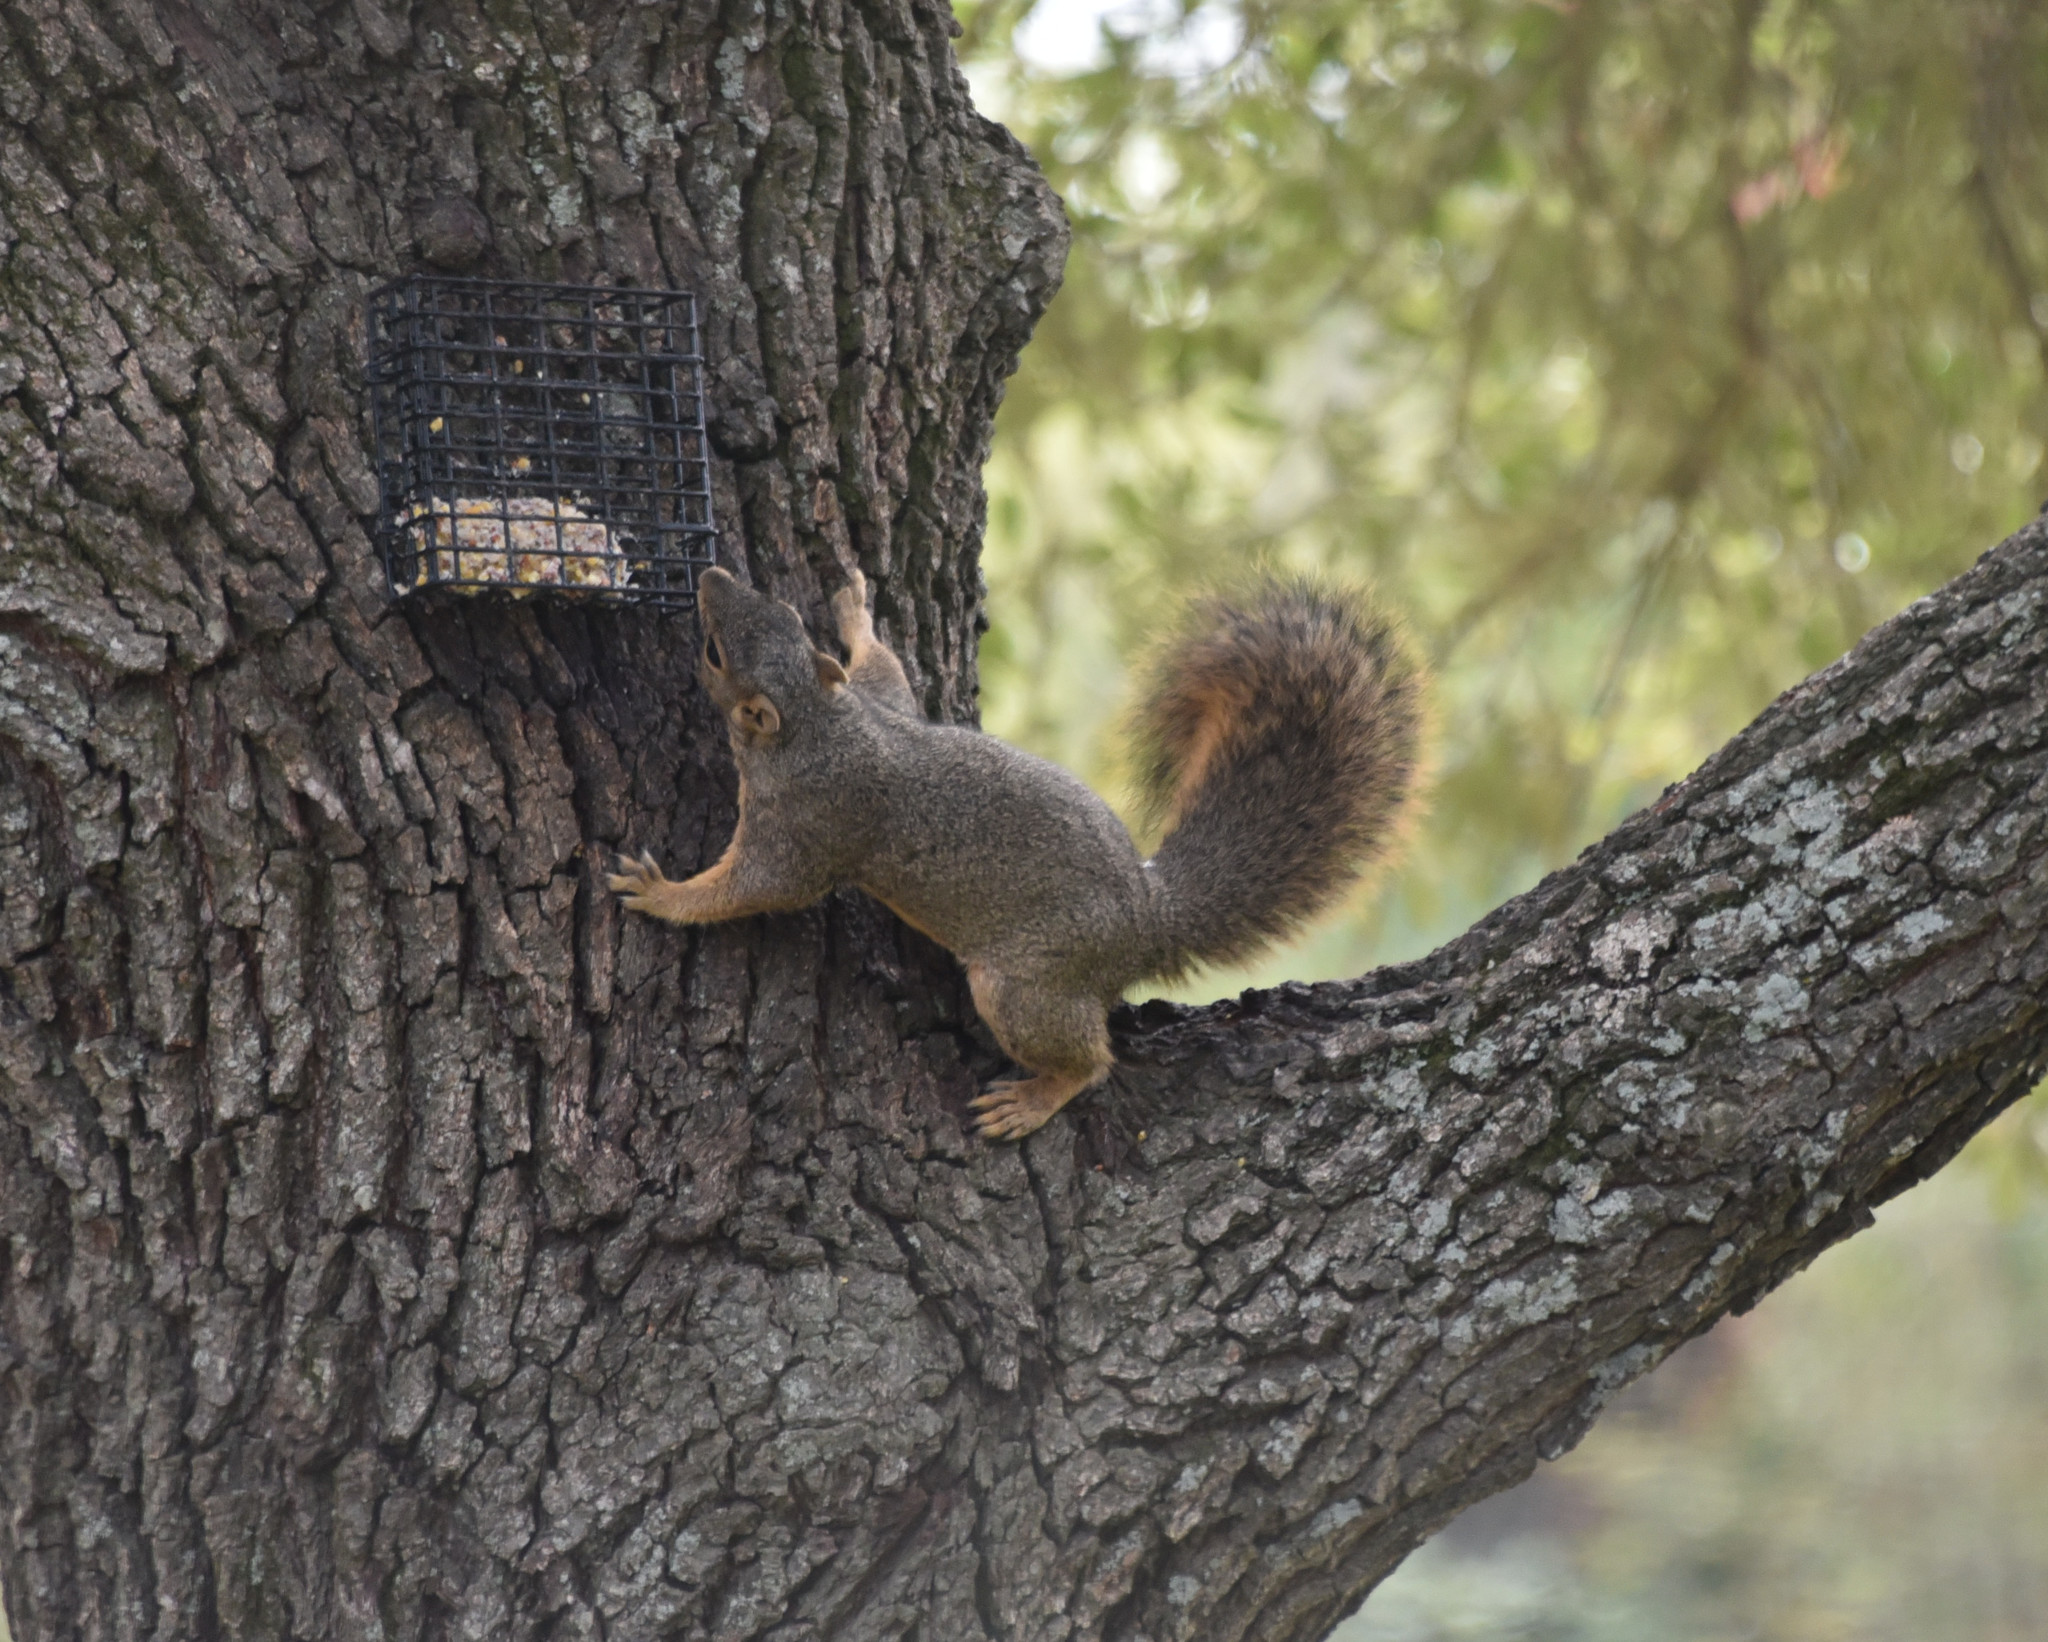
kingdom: Animalia
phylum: Chordata
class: Mammalia
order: Rodentia
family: Sciuridae
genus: Sciurus
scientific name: Sciurus niger
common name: Fox squirrel
